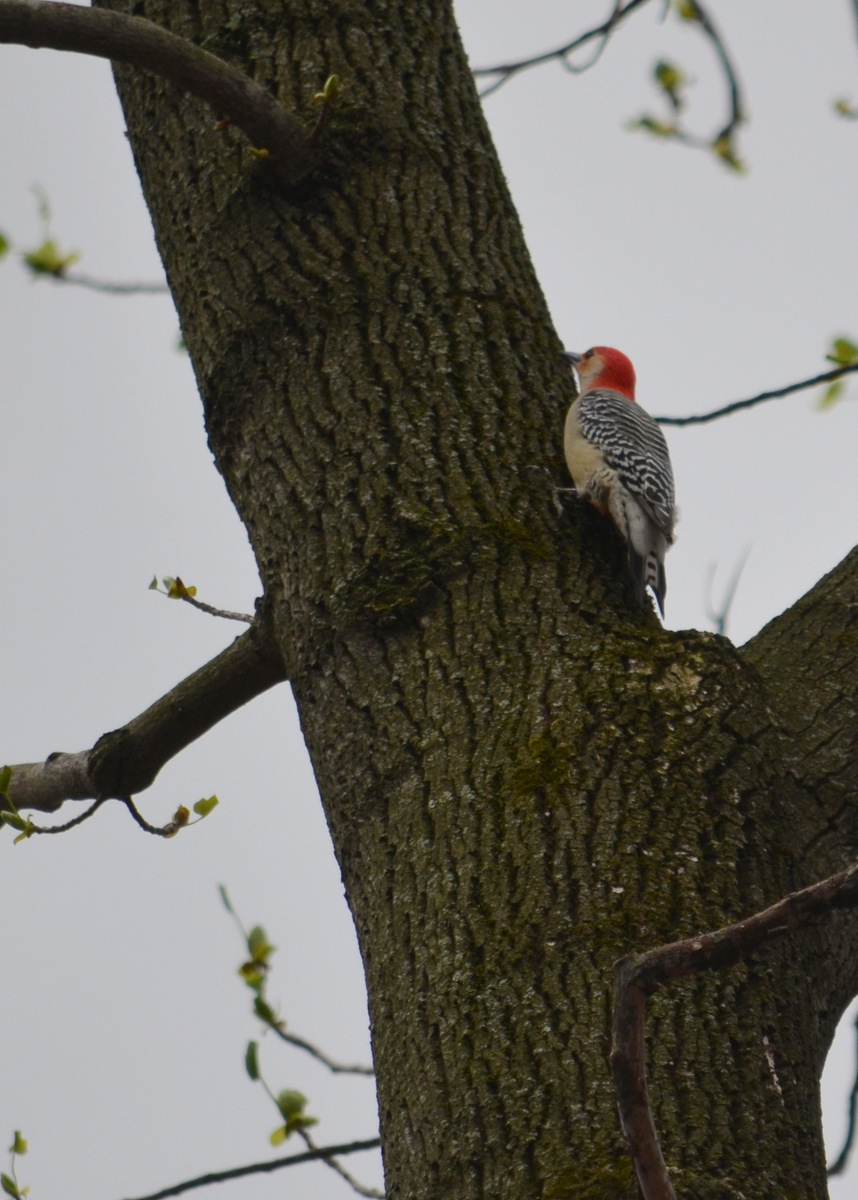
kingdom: Animalia
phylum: Chordata
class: Aves
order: Piciformes
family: Picidae
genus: Melanerpes
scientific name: Melanerpes carolinus
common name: Red-bellied woodpecker
